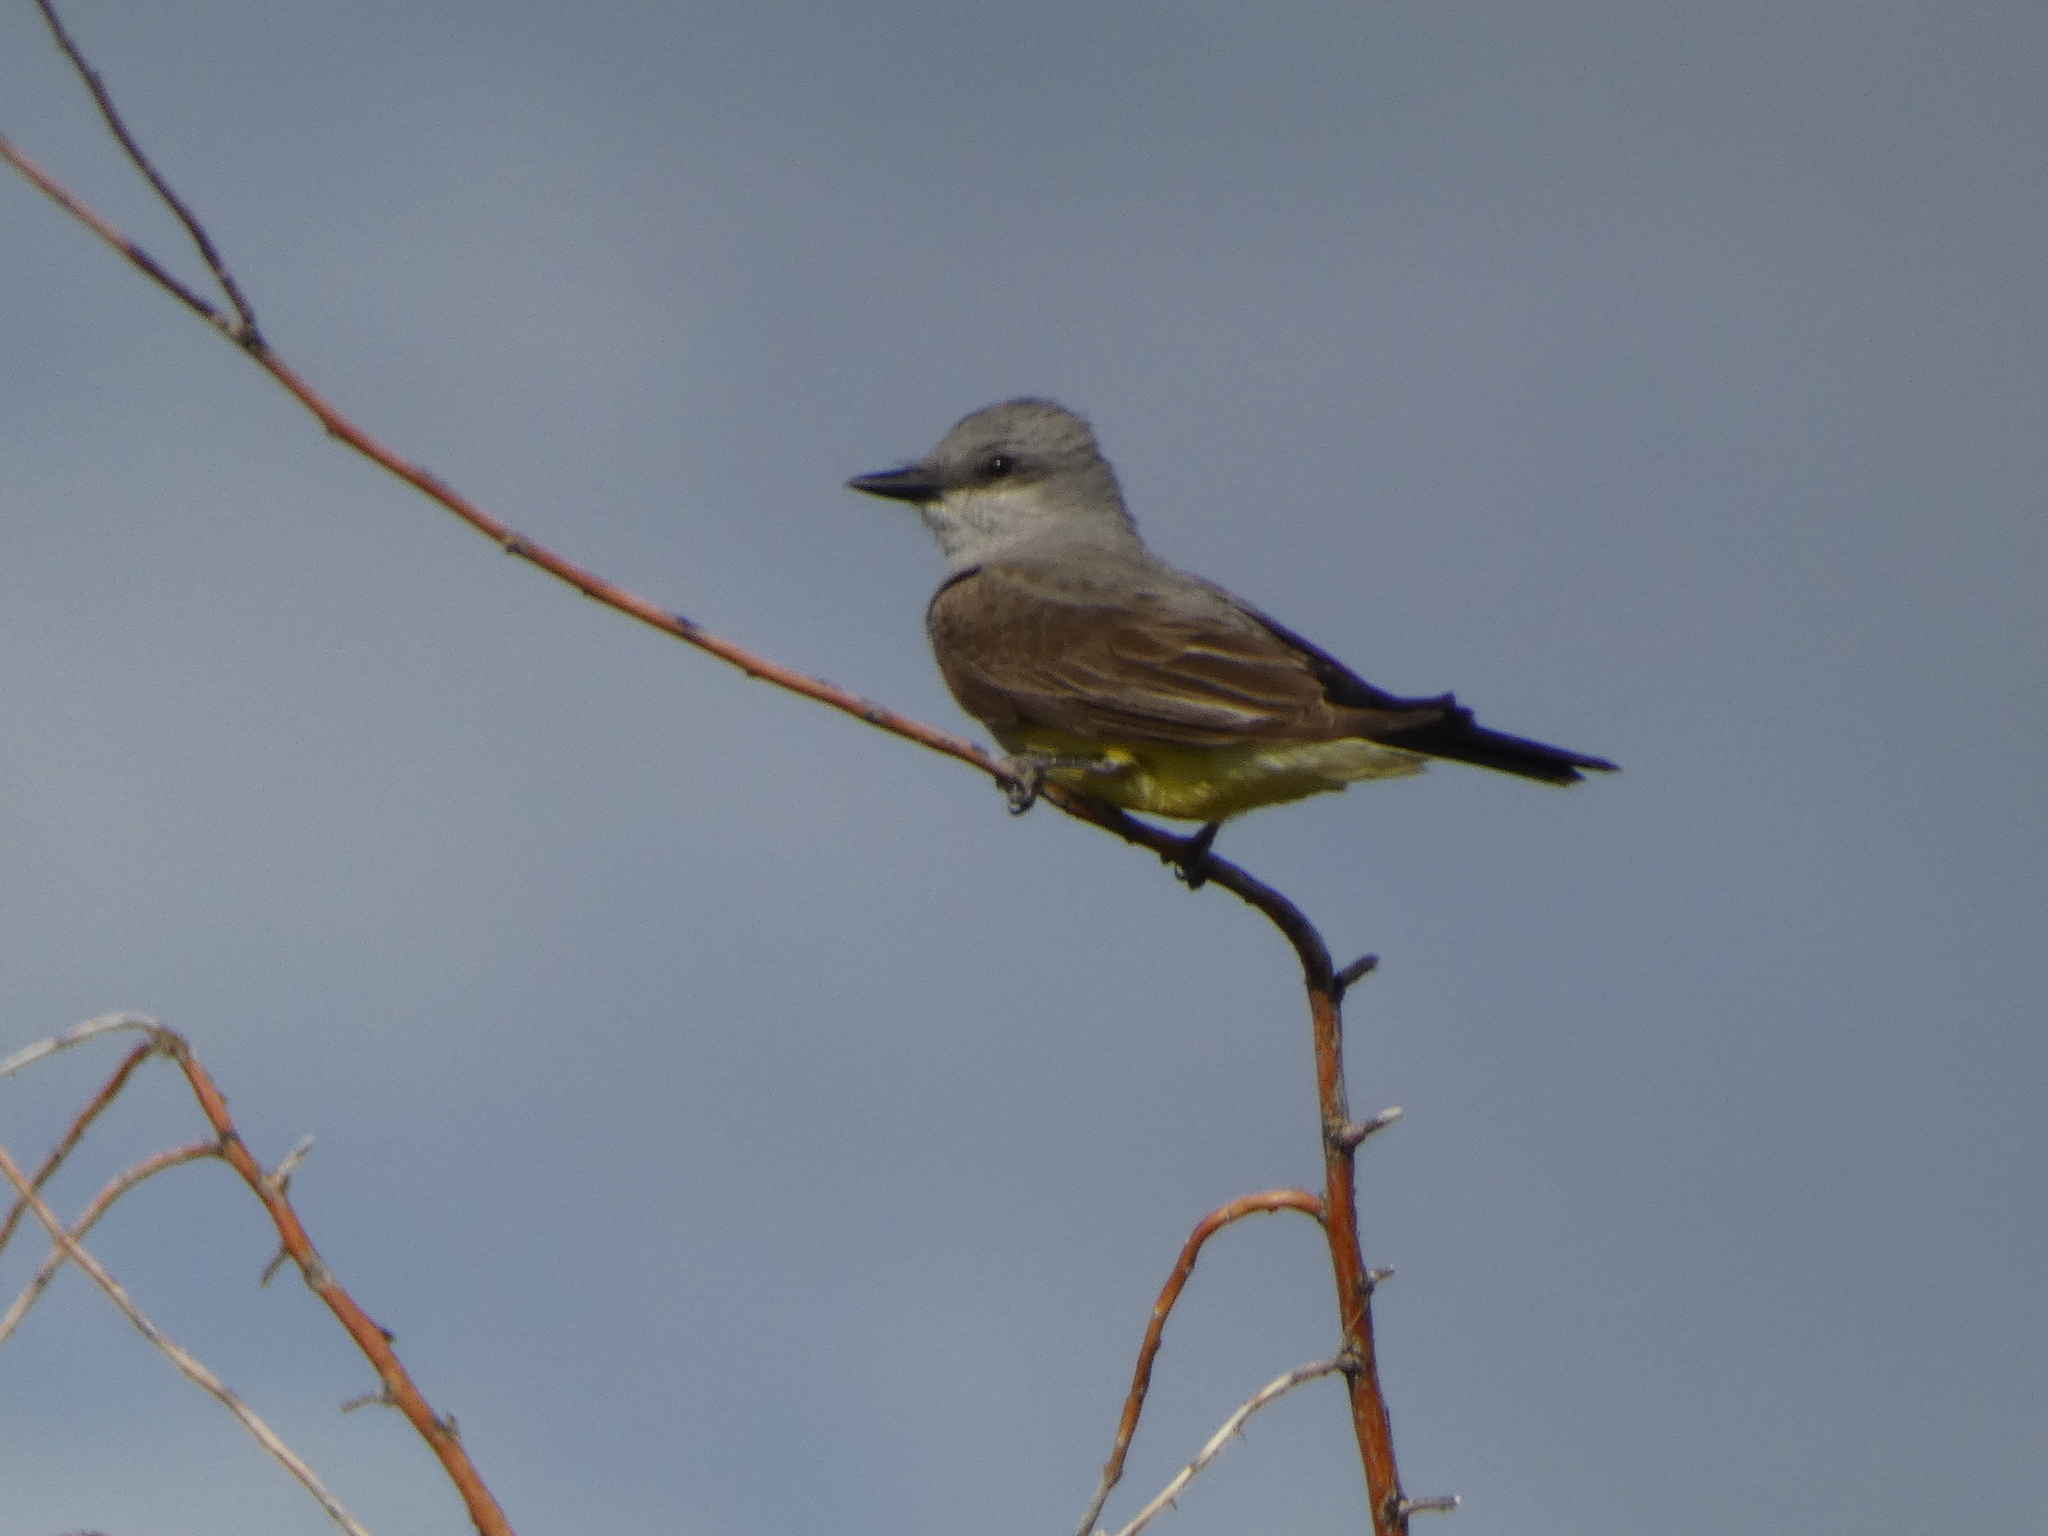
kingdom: Animalia
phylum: Chordata
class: Aves
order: Passeriformes
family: Tyrannidae
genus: Tyrannus
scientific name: Tyrannus verticalis
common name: Western kingbird
